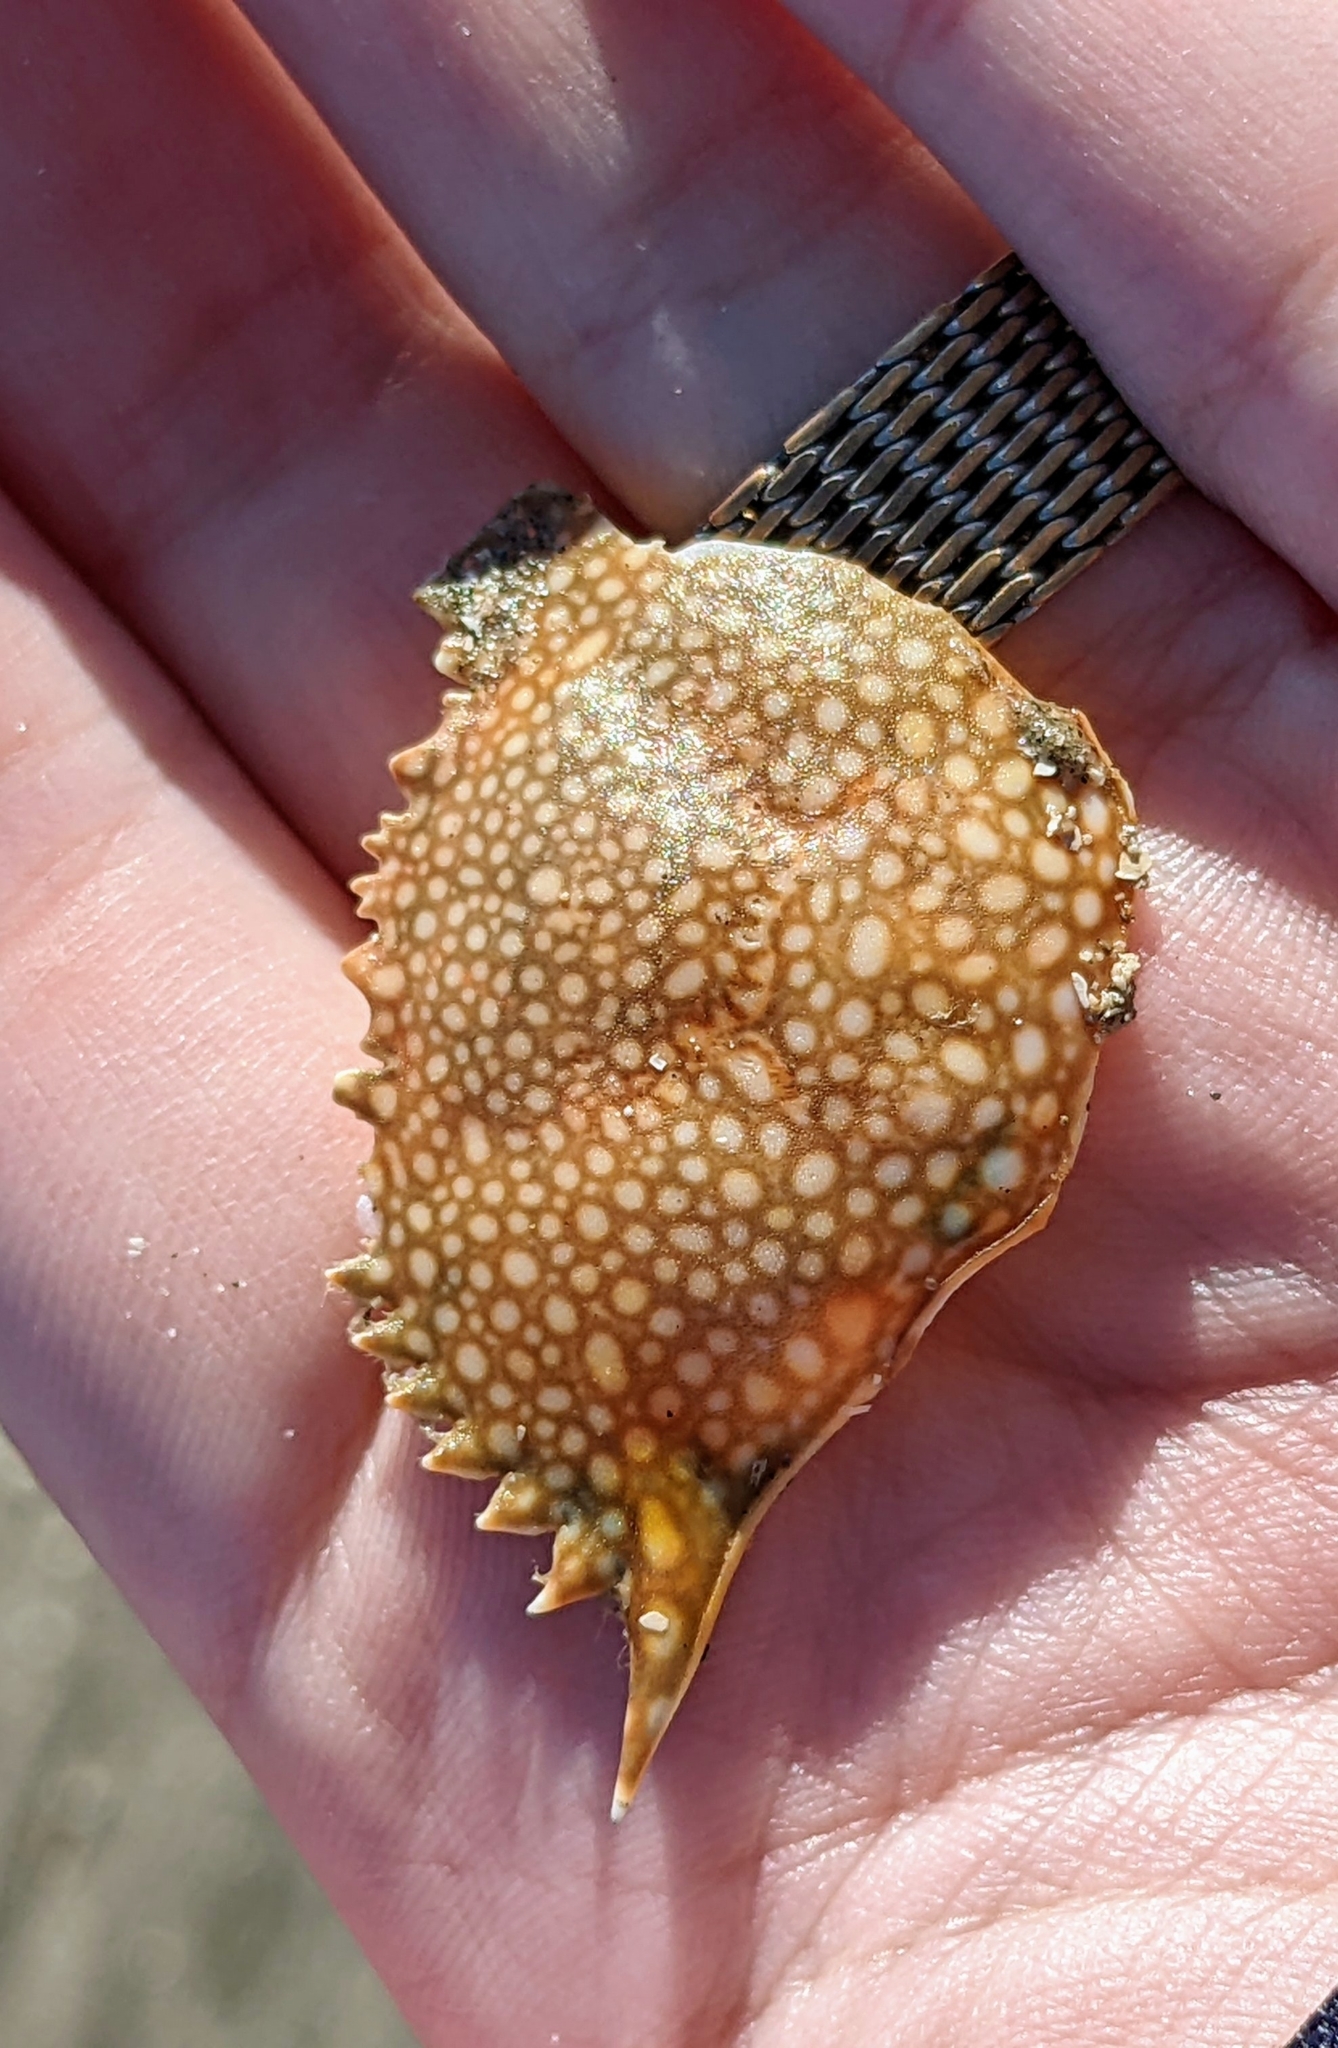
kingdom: Animalia
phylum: Arthropoda
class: Malacostraca
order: Decapoda
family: Portunidae
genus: Arenaeus
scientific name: Arenaeus cribrarius
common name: Speckled crab
